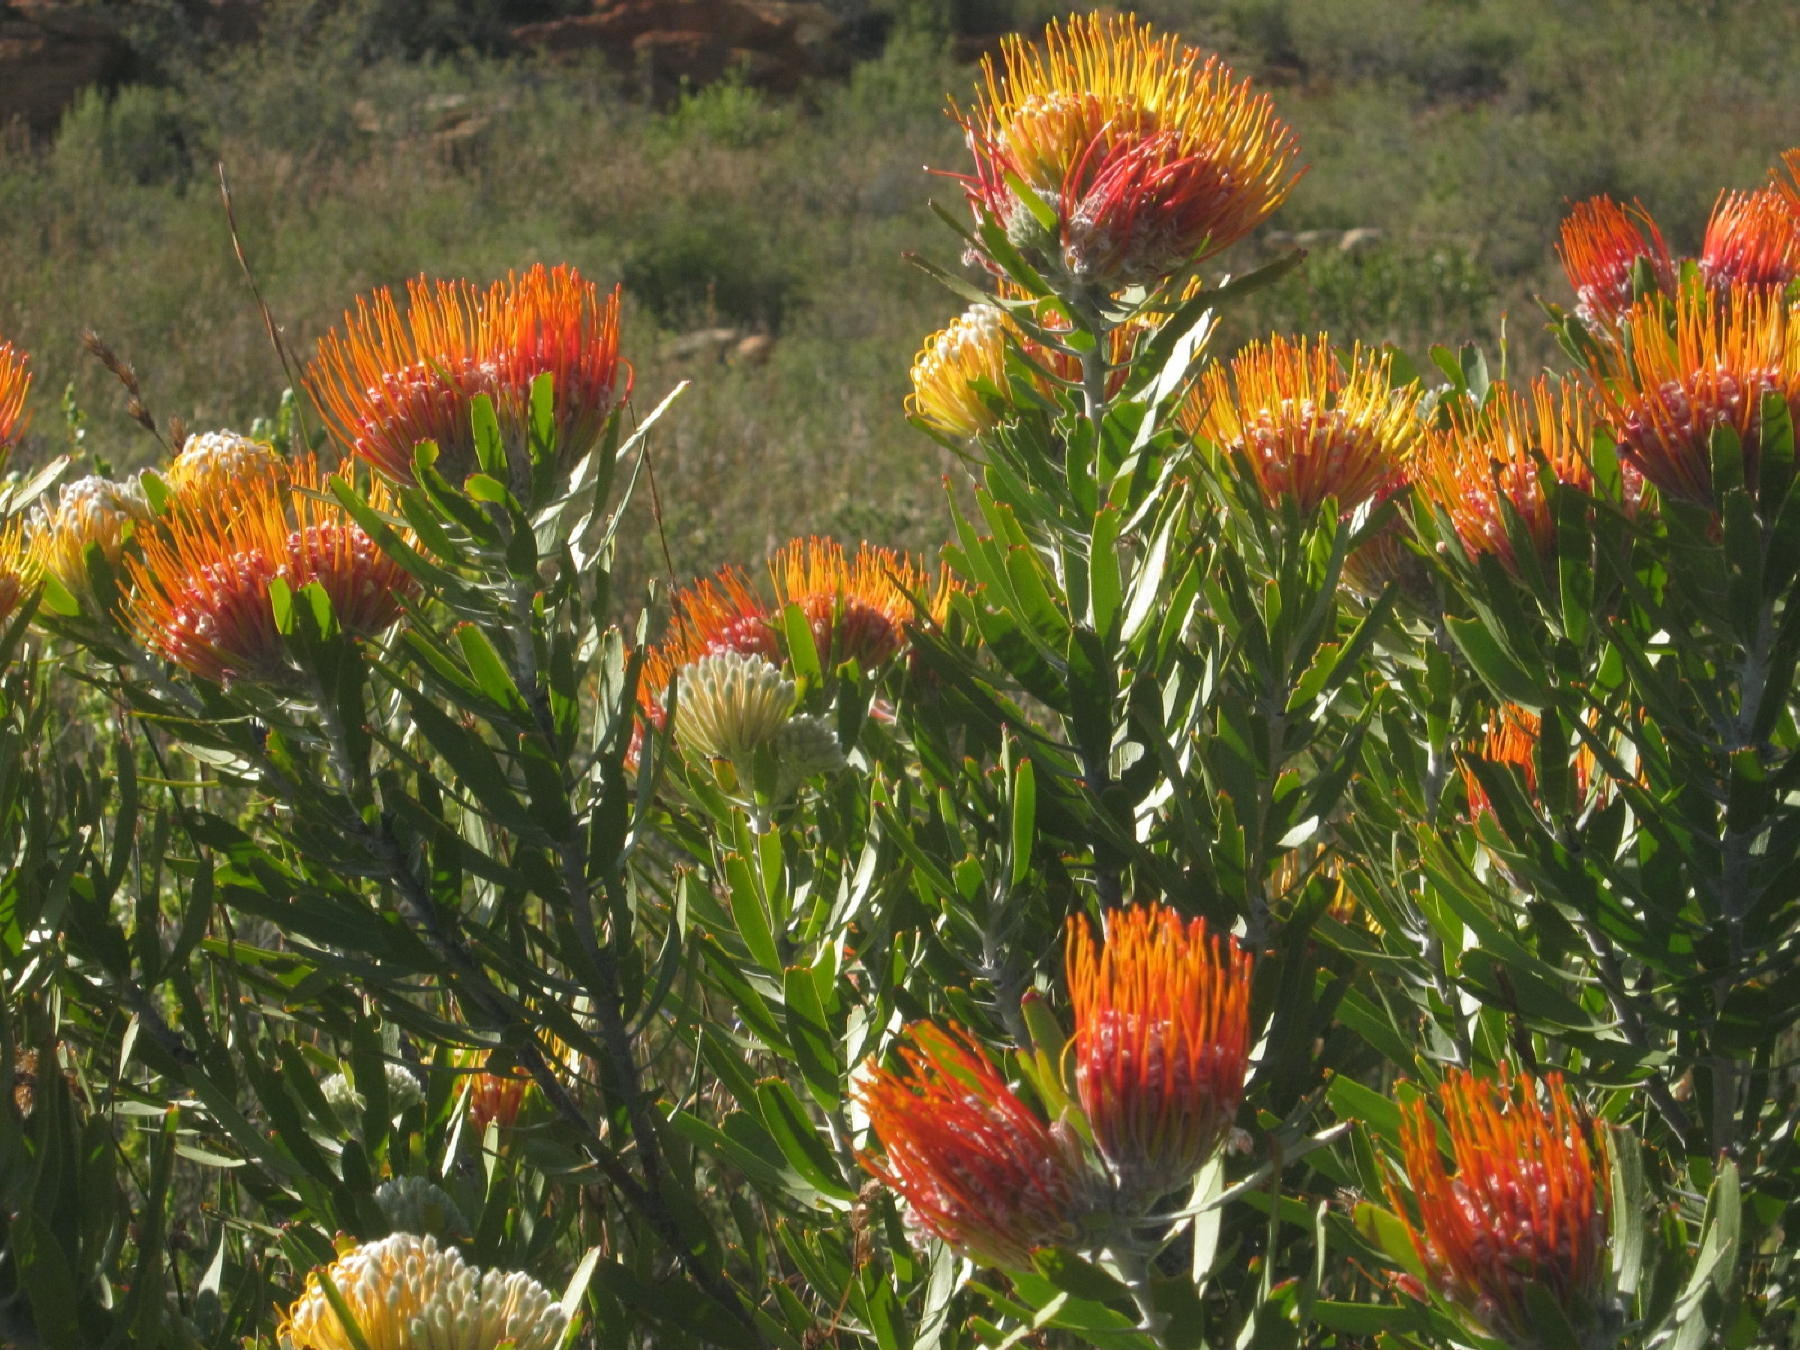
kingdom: Plantae
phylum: Tracheophyta
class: Magnoliopsida
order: Proteales
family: Proteaceae
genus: Leucospermum
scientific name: Leucospermum erubescens
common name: Oudtshoorn pincushion
